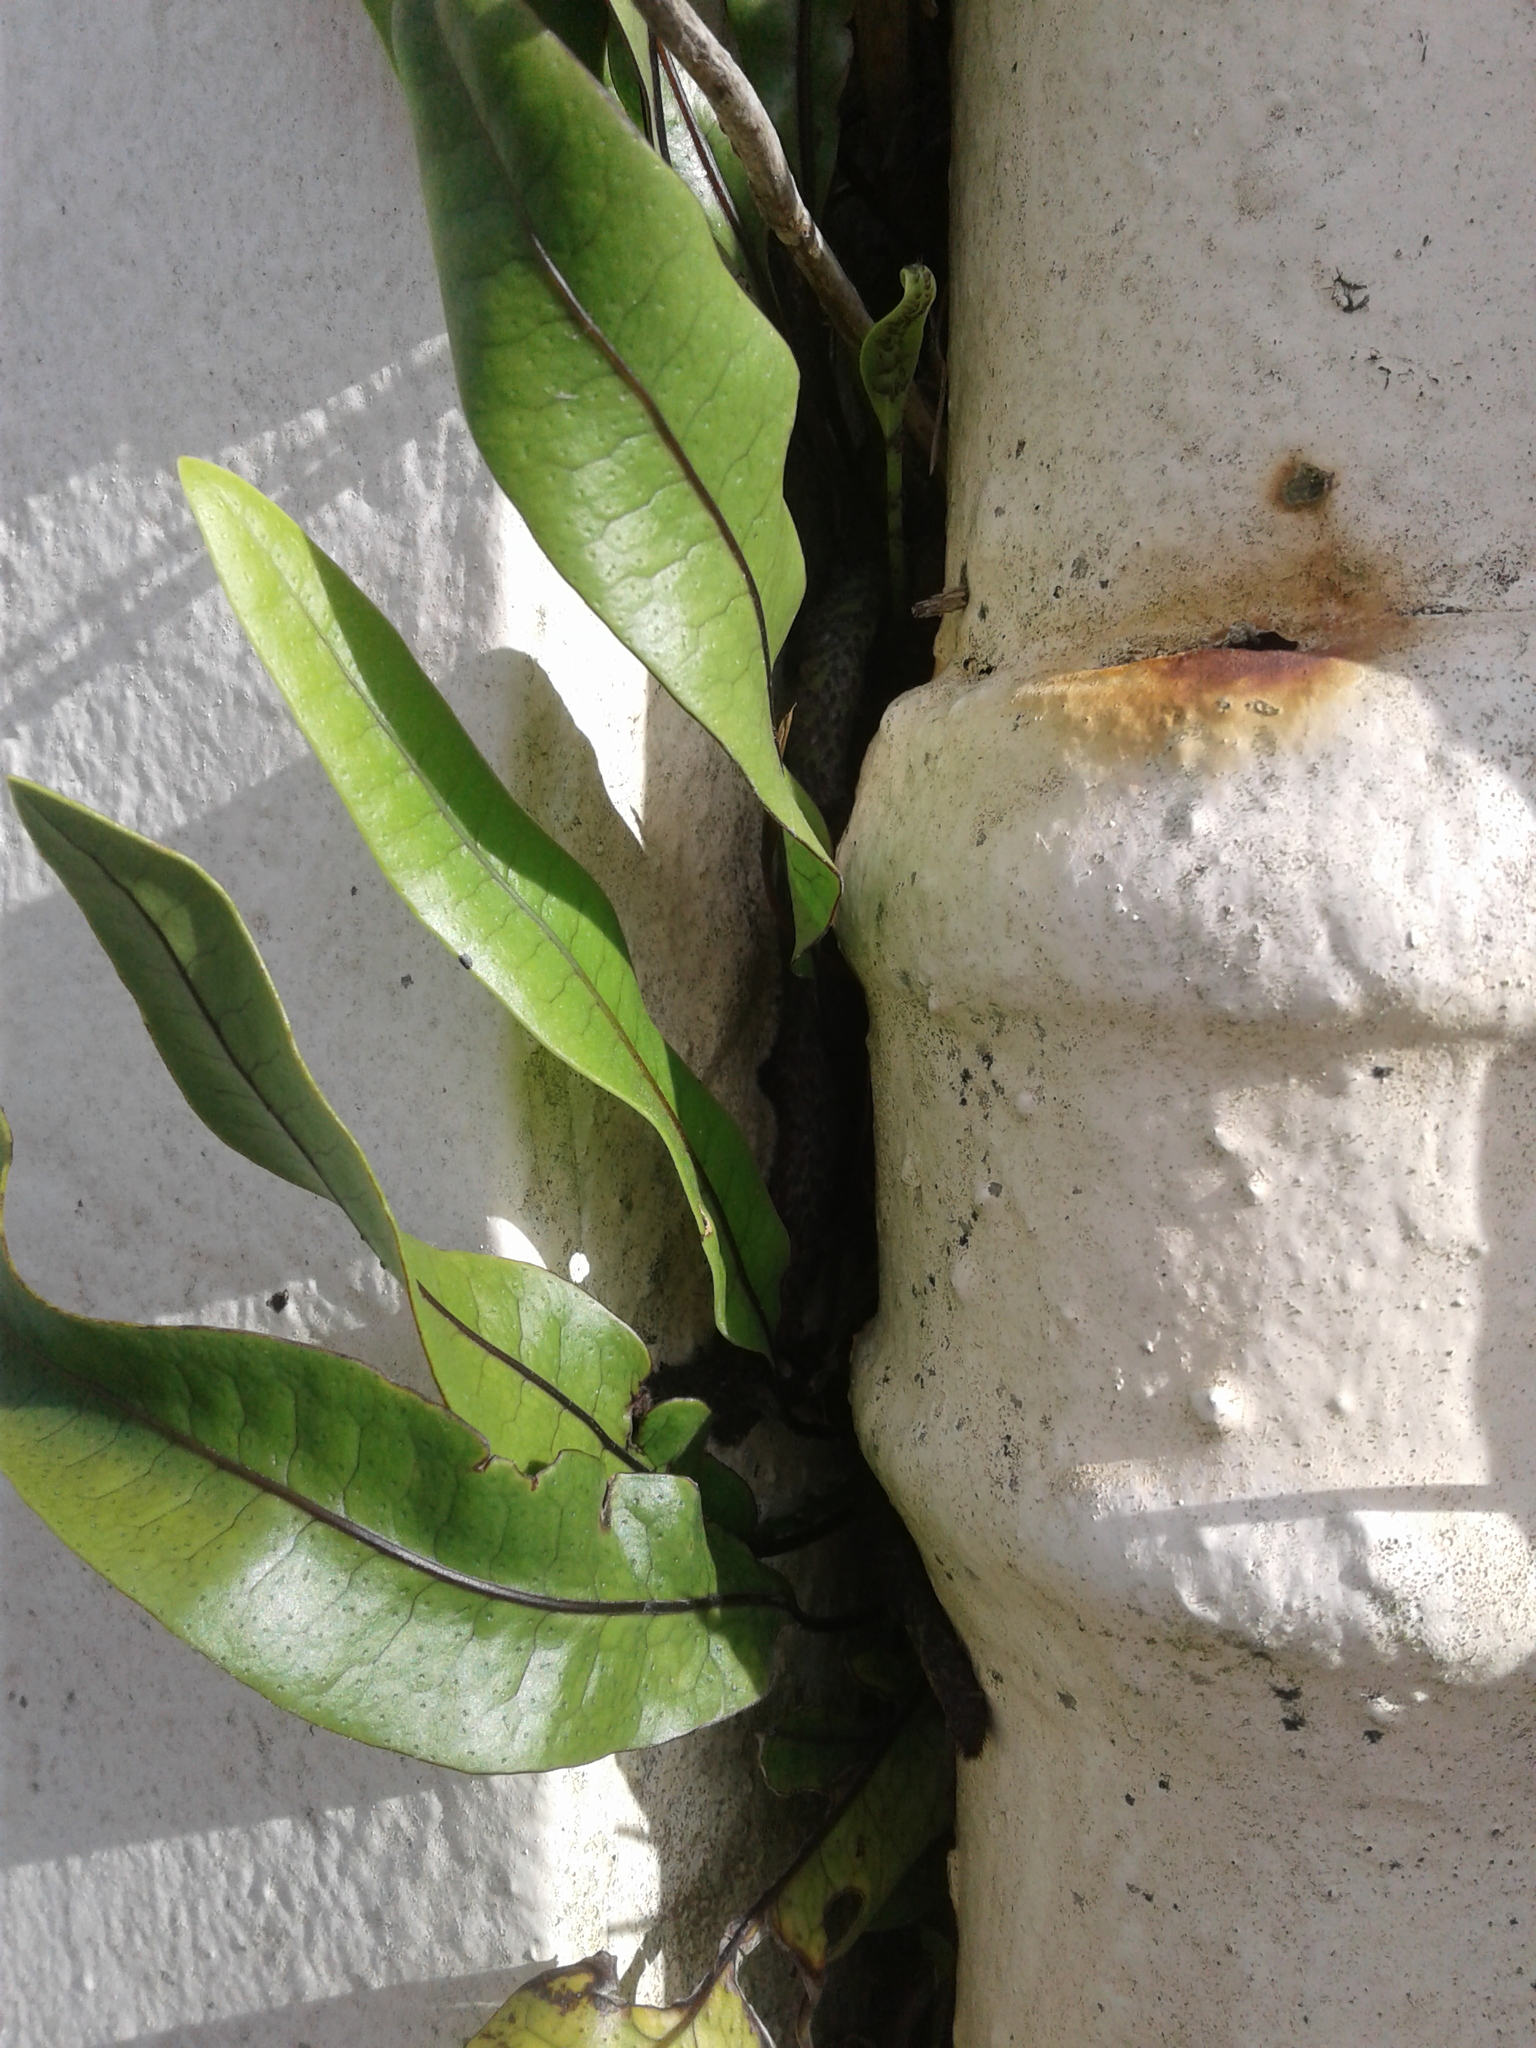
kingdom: Plantae
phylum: Tracheophyta
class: Polypodiopsida
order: Polypodiales
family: Polypodiaceae
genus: Lecanopteris
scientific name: Lecanopteris pustulata
